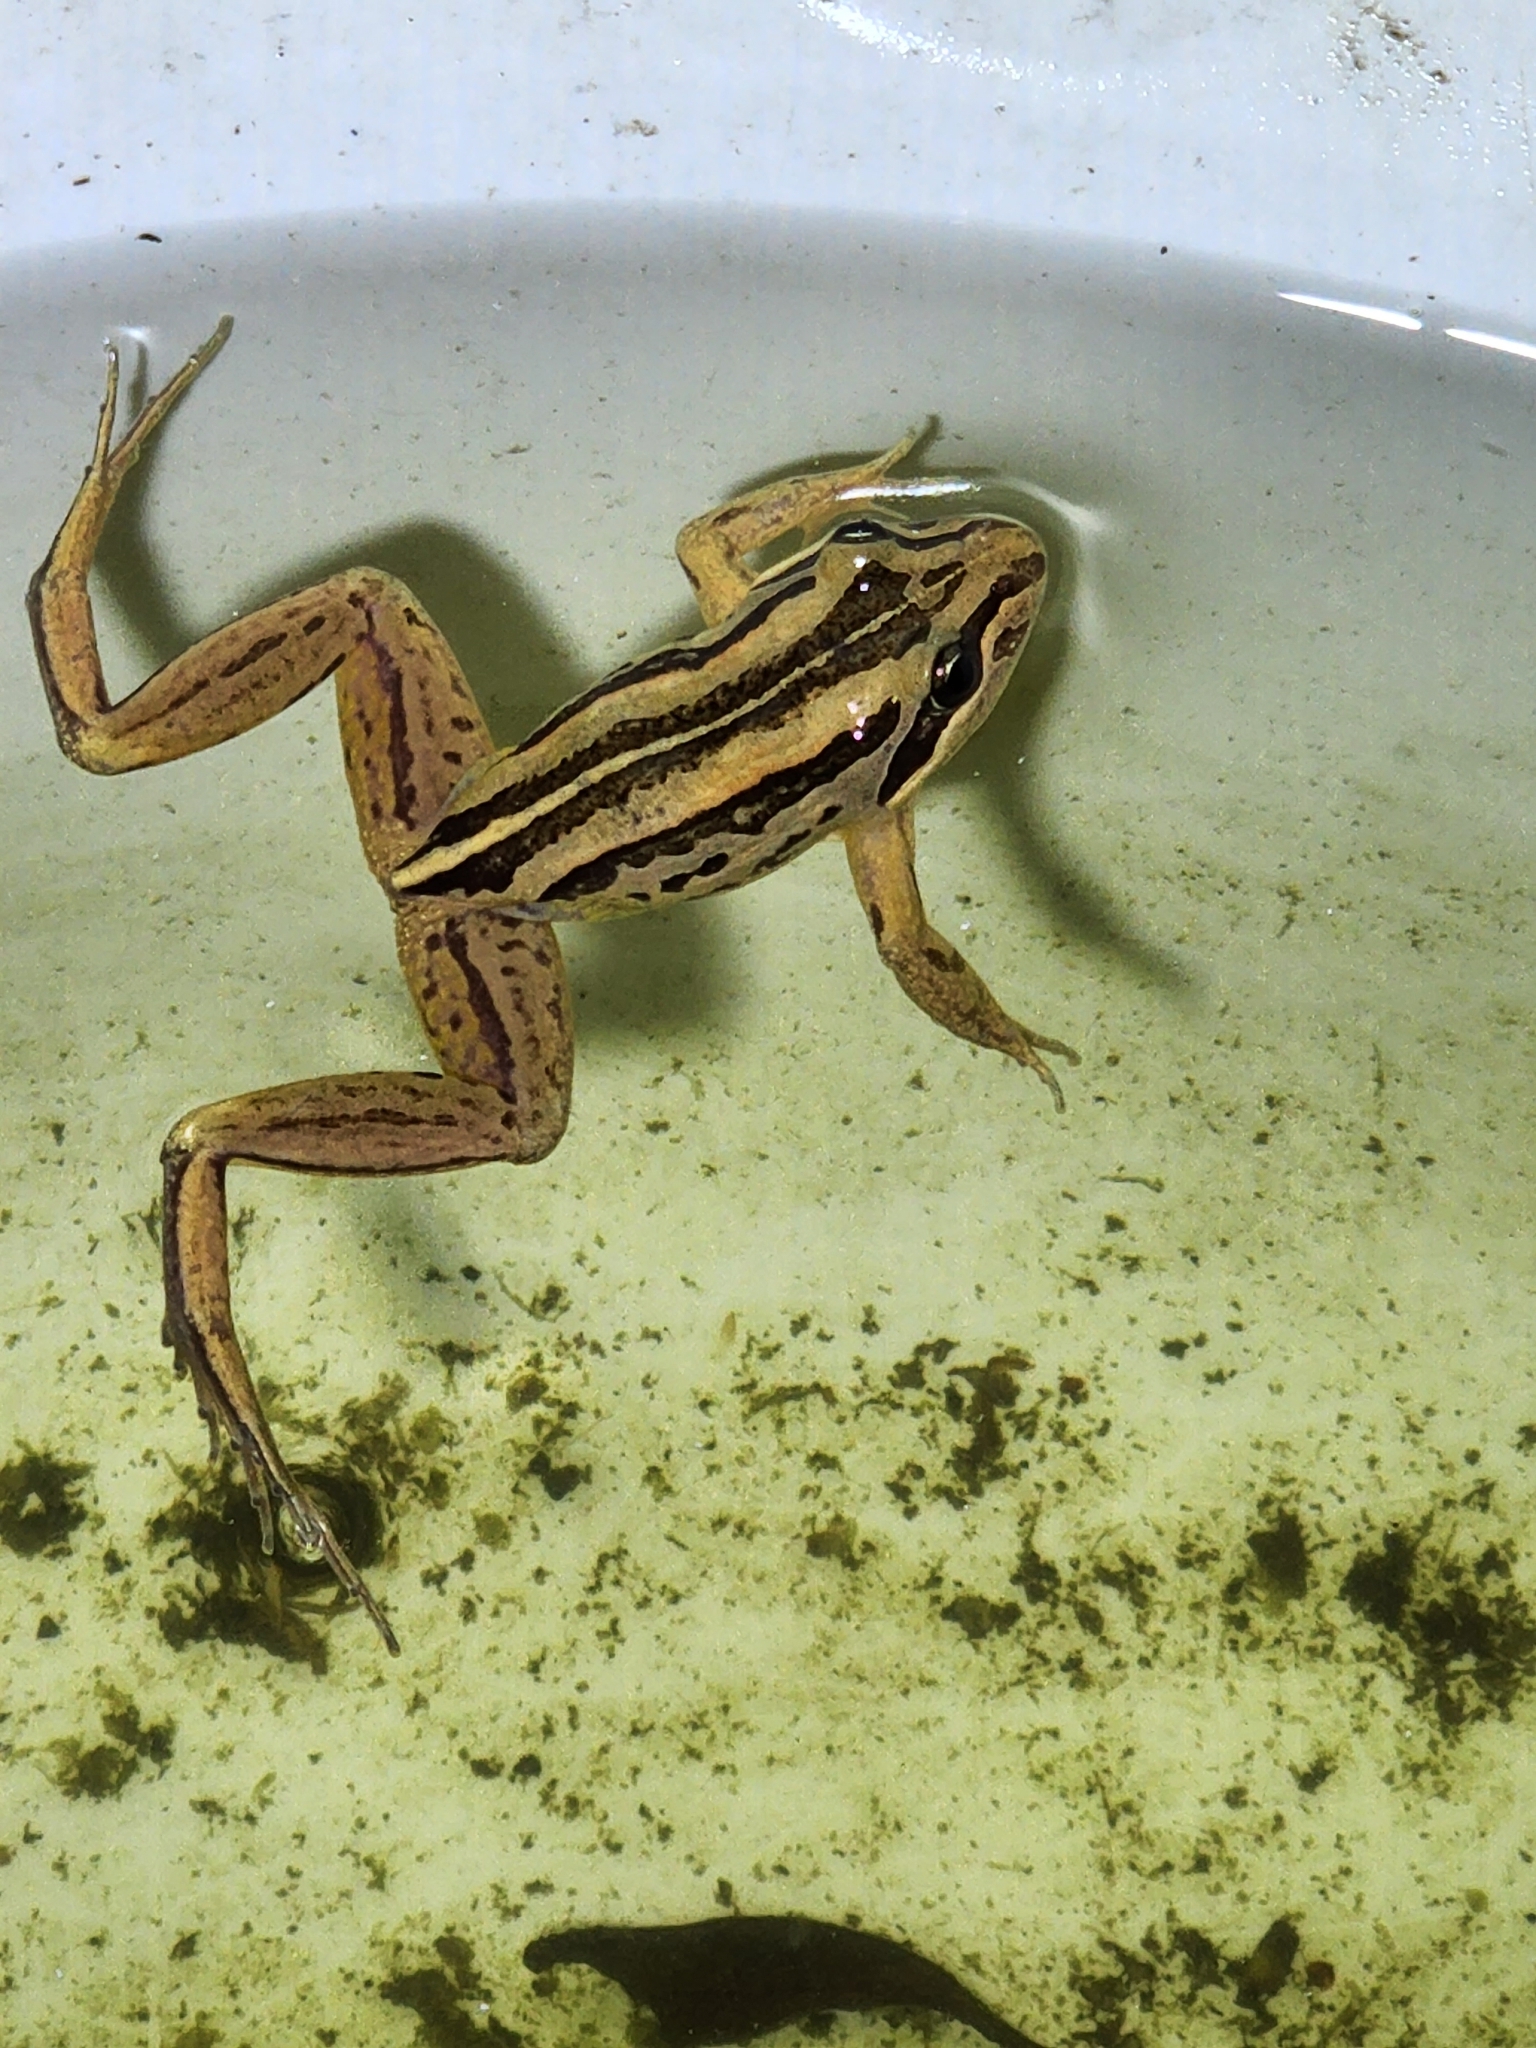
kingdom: Animalia
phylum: Chordata
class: Amphibia
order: Anura
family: Limnodynastidae
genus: Limnodynastes
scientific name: Limnodynastes peronii
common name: Brown frog
